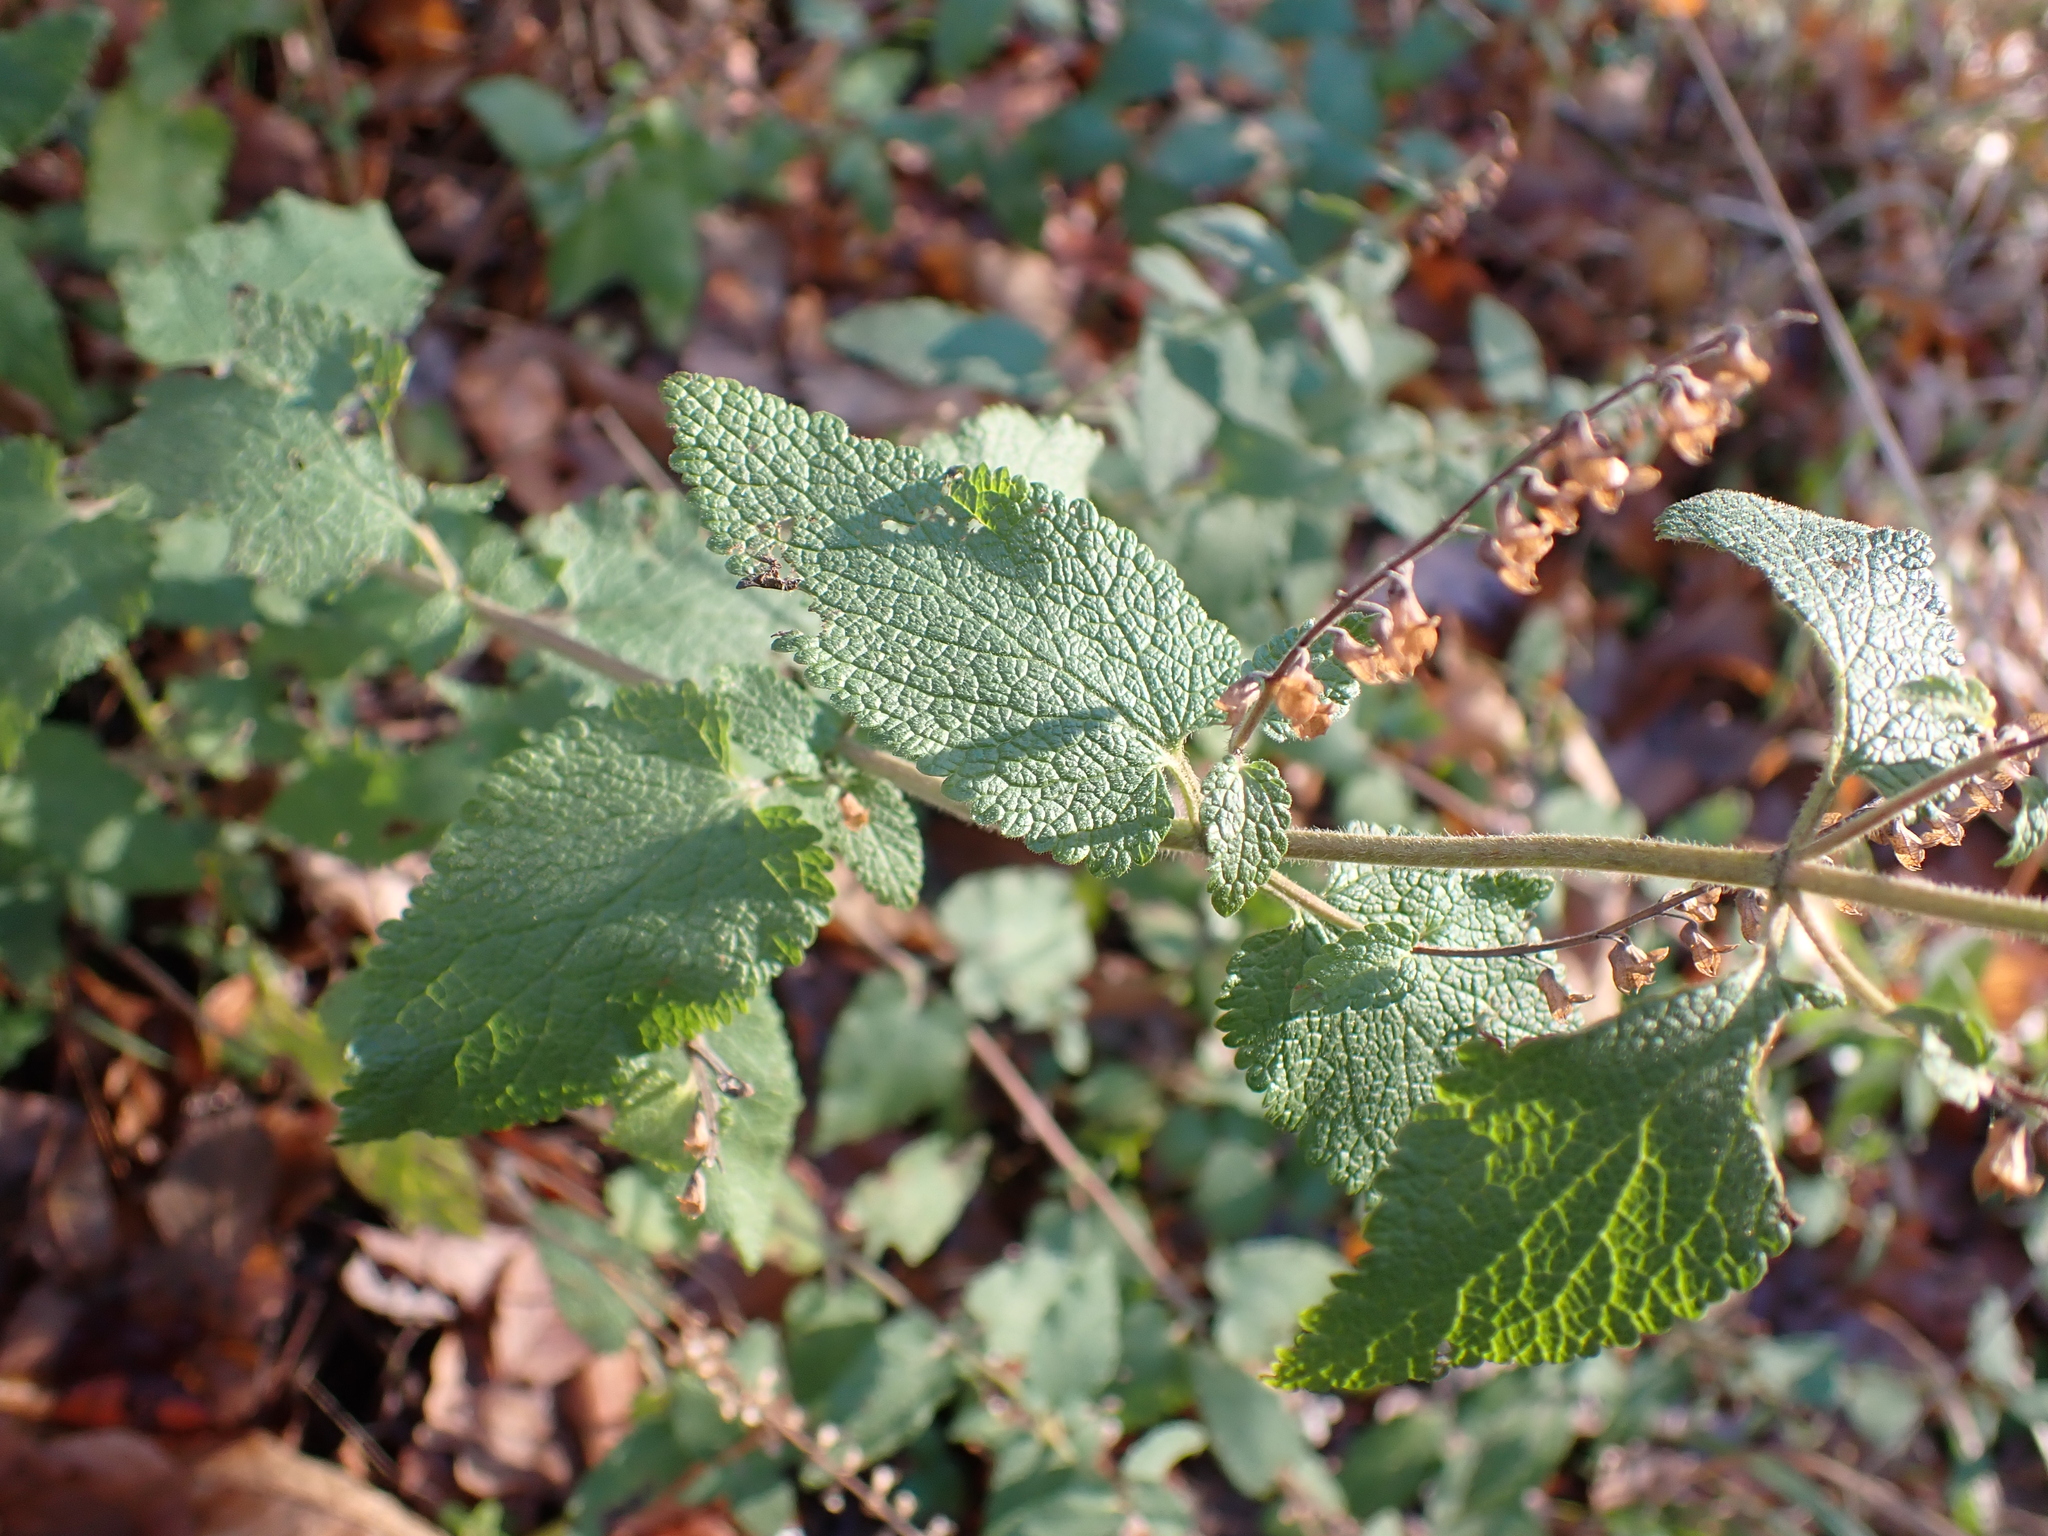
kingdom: Plantae
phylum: Tracheophyta
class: Magnoliopsida
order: Lamiales
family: Lamiaceae
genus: Teucrium
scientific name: Teucrium scorodonia
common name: Woodland germander
